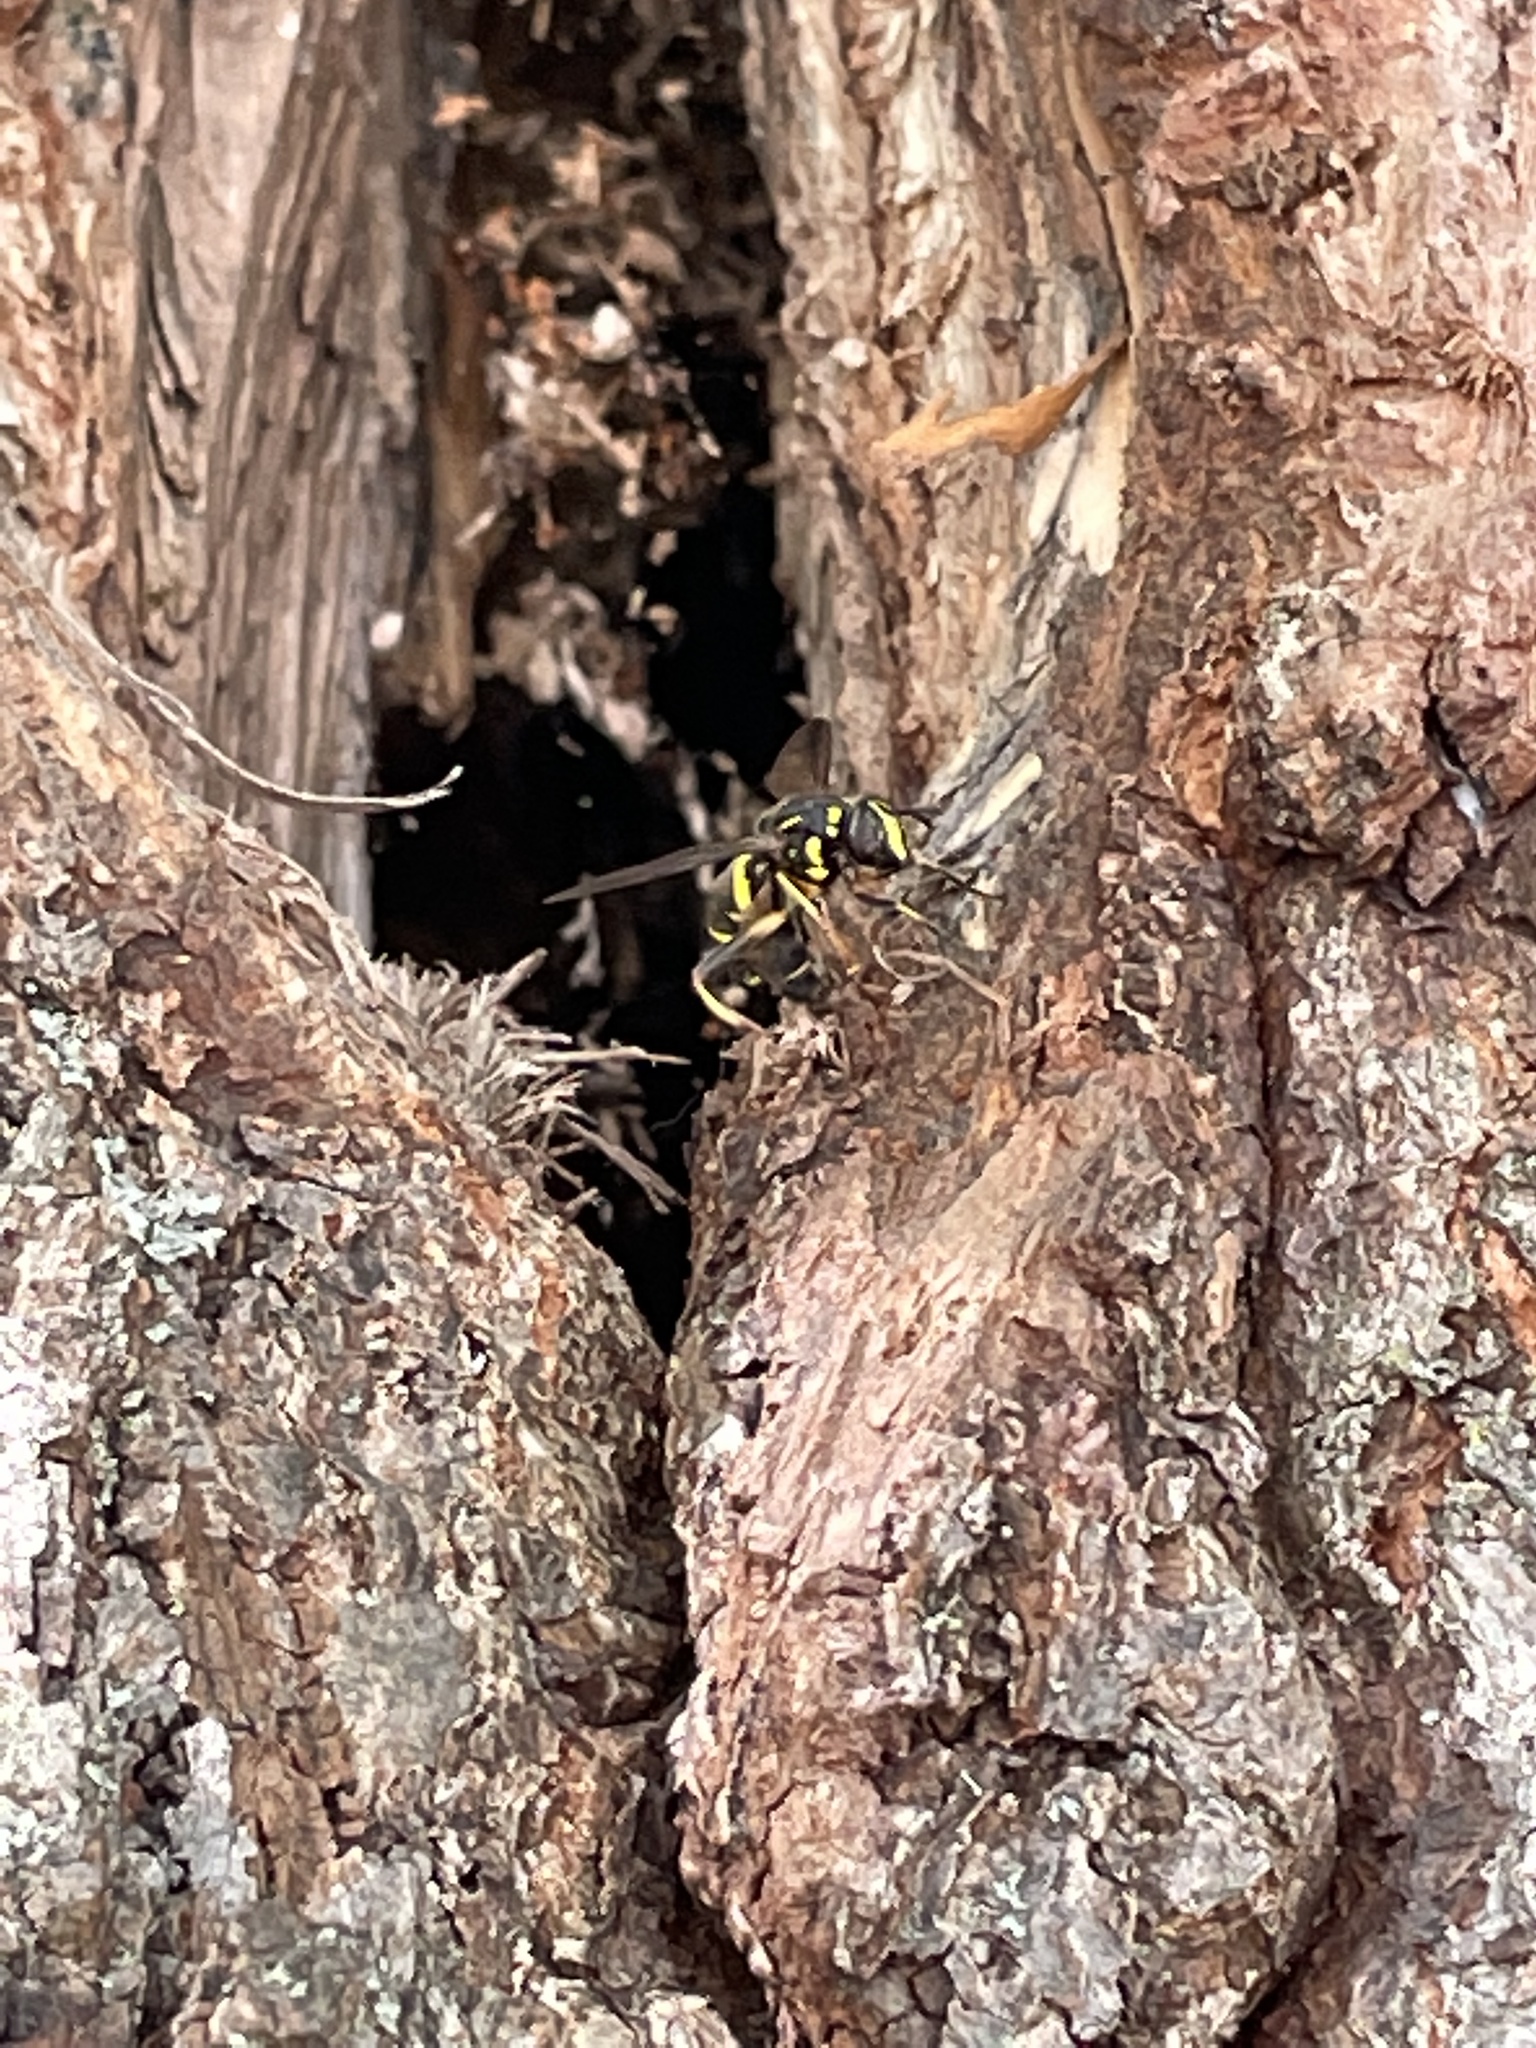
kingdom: Animalia
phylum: Arthropoda
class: Insecta
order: Diptera
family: Syrphidae
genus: Spilomyia
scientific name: Spilomyia sayi
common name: Four-lined hornet fly
